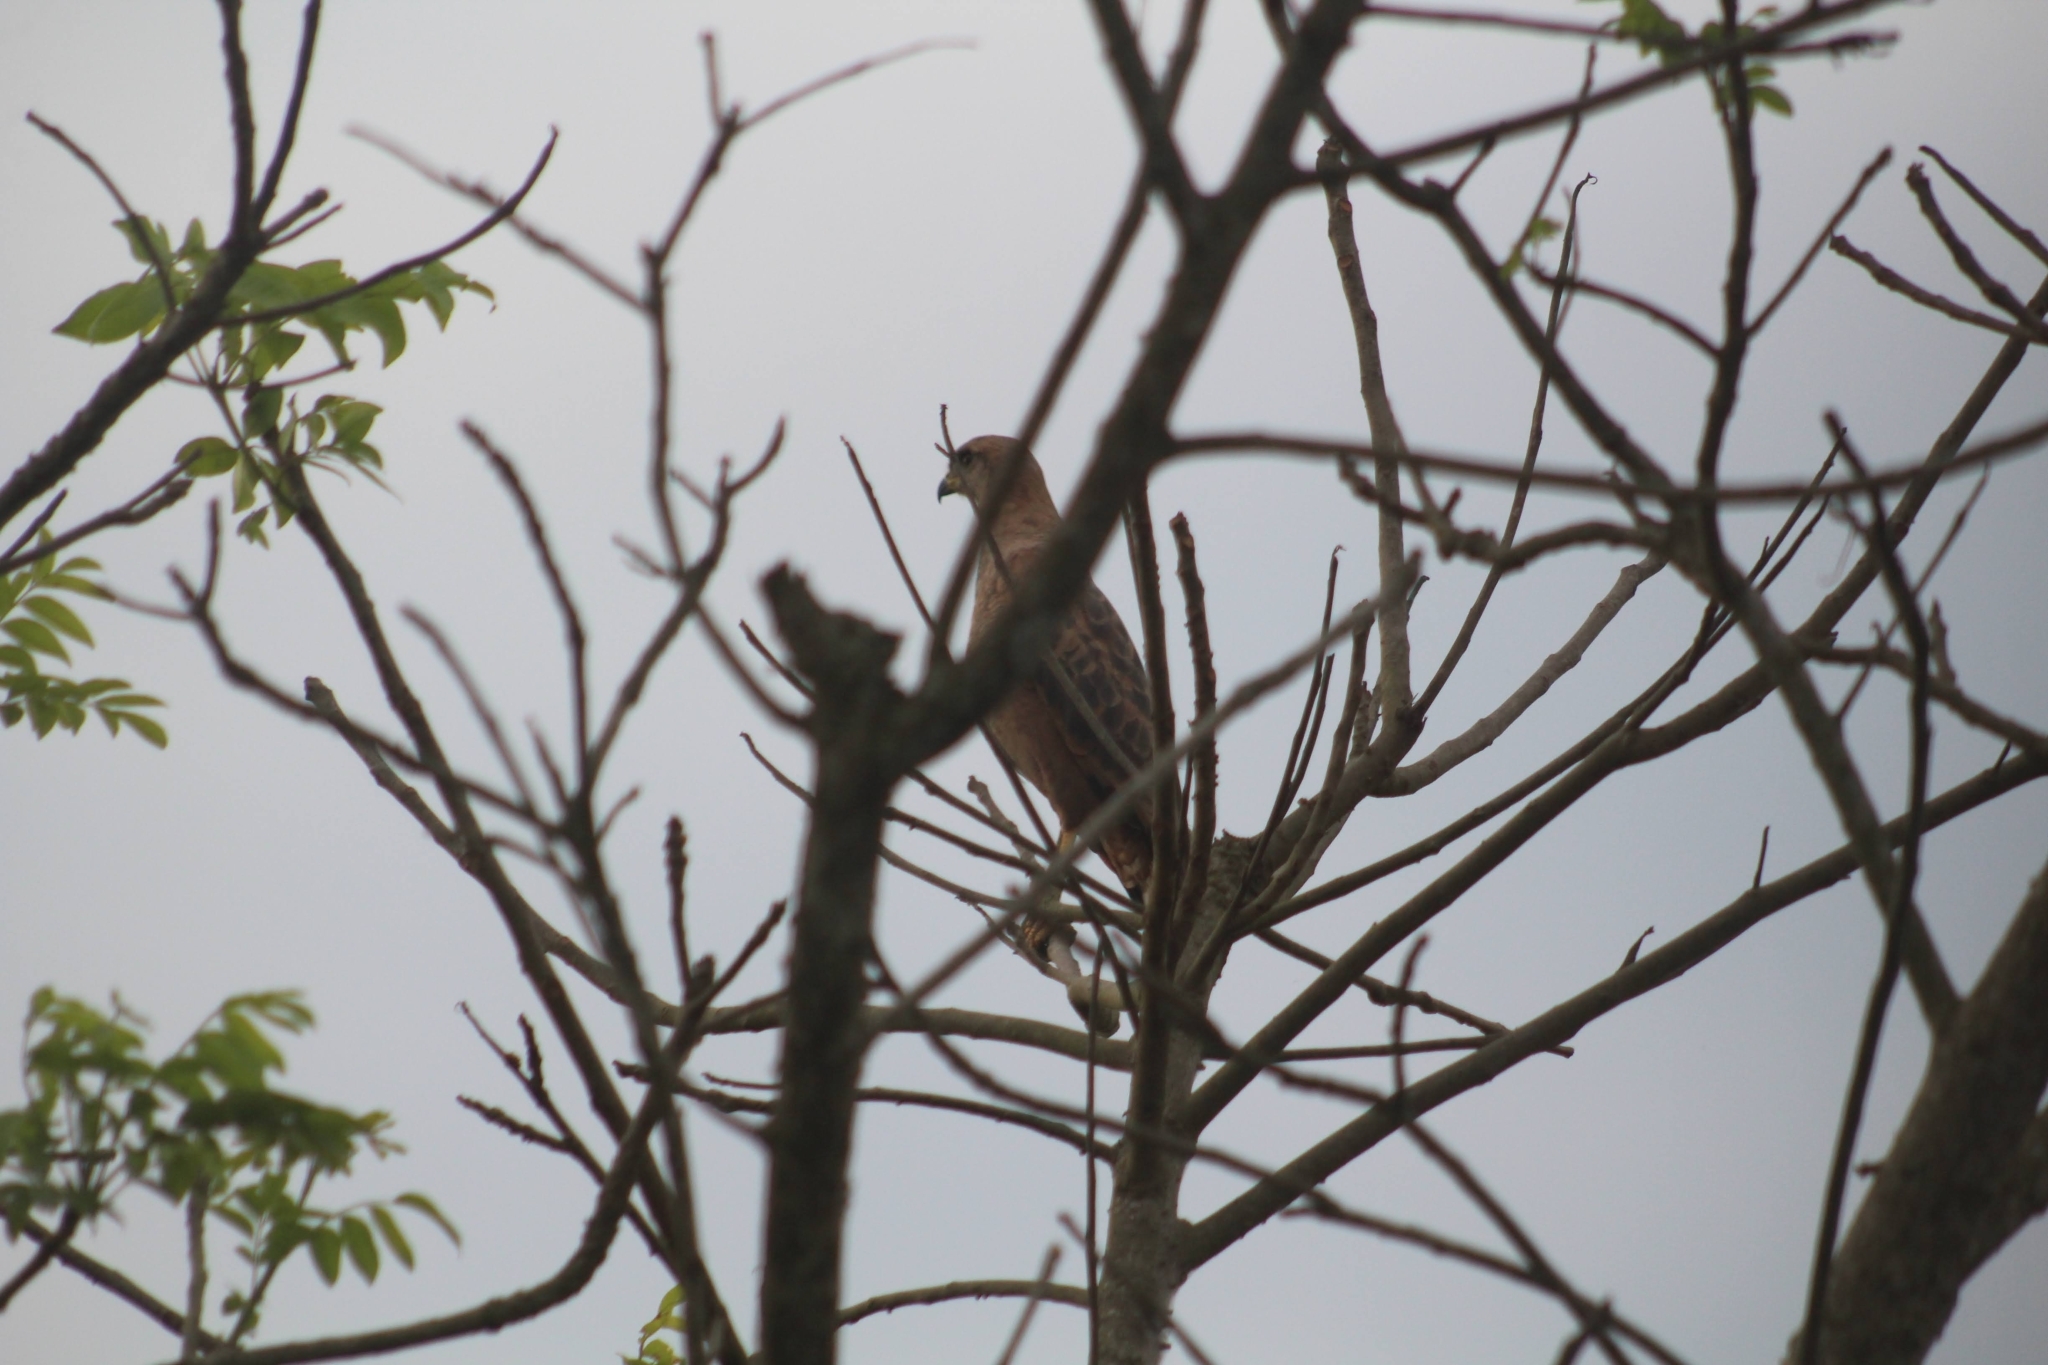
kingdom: Animalia
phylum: Chordata
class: Aves
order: Accipitriformes
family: Accipitridae
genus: Buteogallus
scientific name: Buteogallus meridionalis
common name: Savanna hawk
